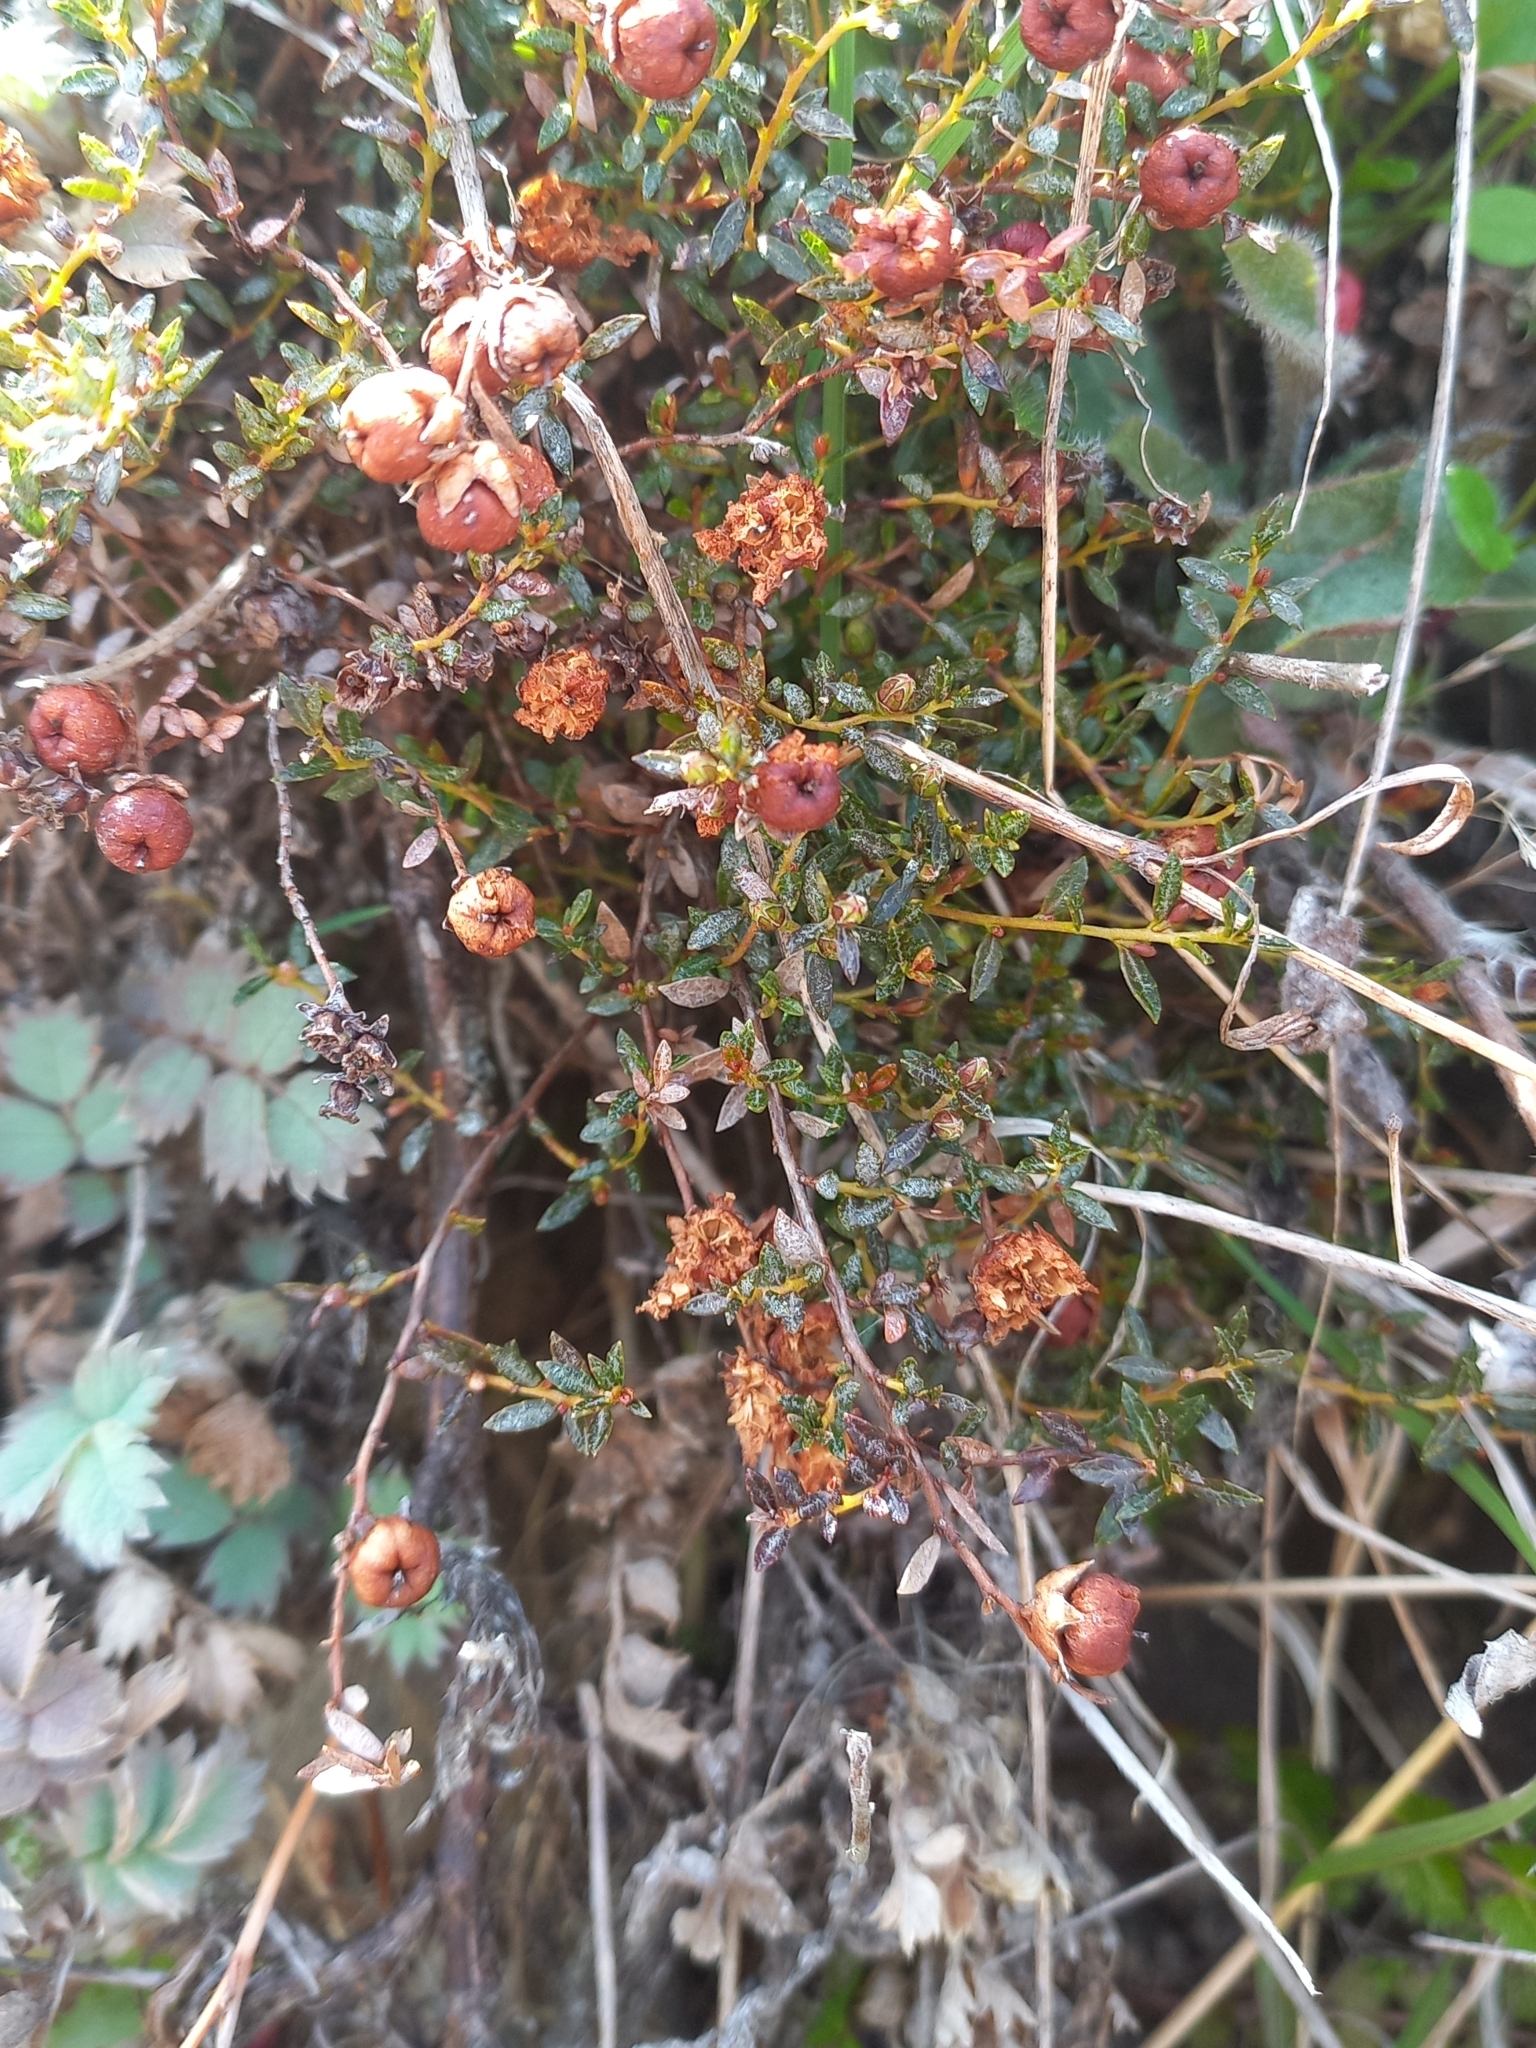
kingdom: Plantae
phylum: Tracheophyta
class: Magnoliopsida
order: Ericales
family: Ericaceae
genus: Gaultheria
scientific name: Gaultheria macrostigma
